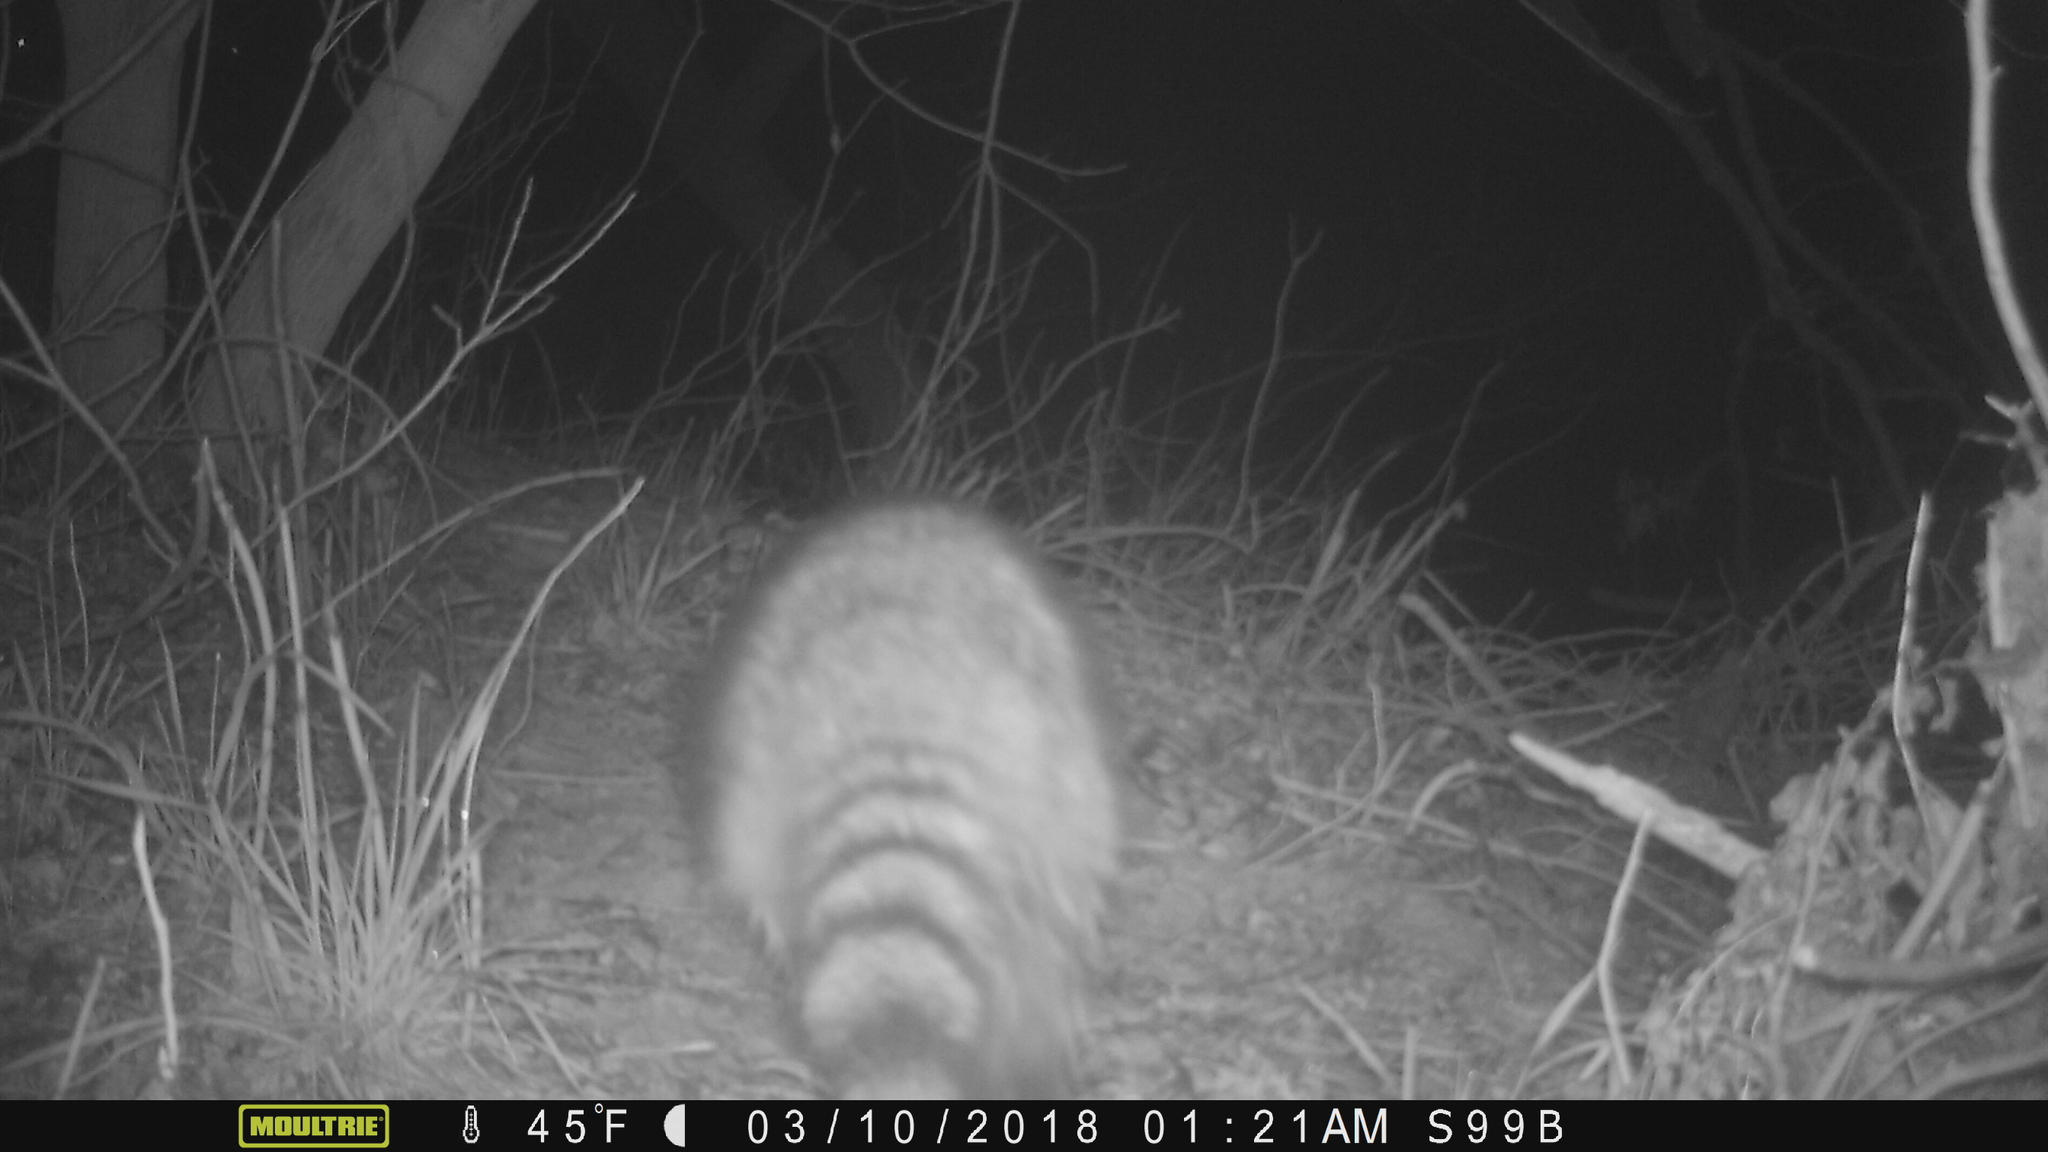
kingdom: Animalia
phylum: Chordata
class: Mammalia
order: Carnivora
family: Procyonidae
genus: Procyon
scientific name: Procyon lotor
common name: Raccoon
